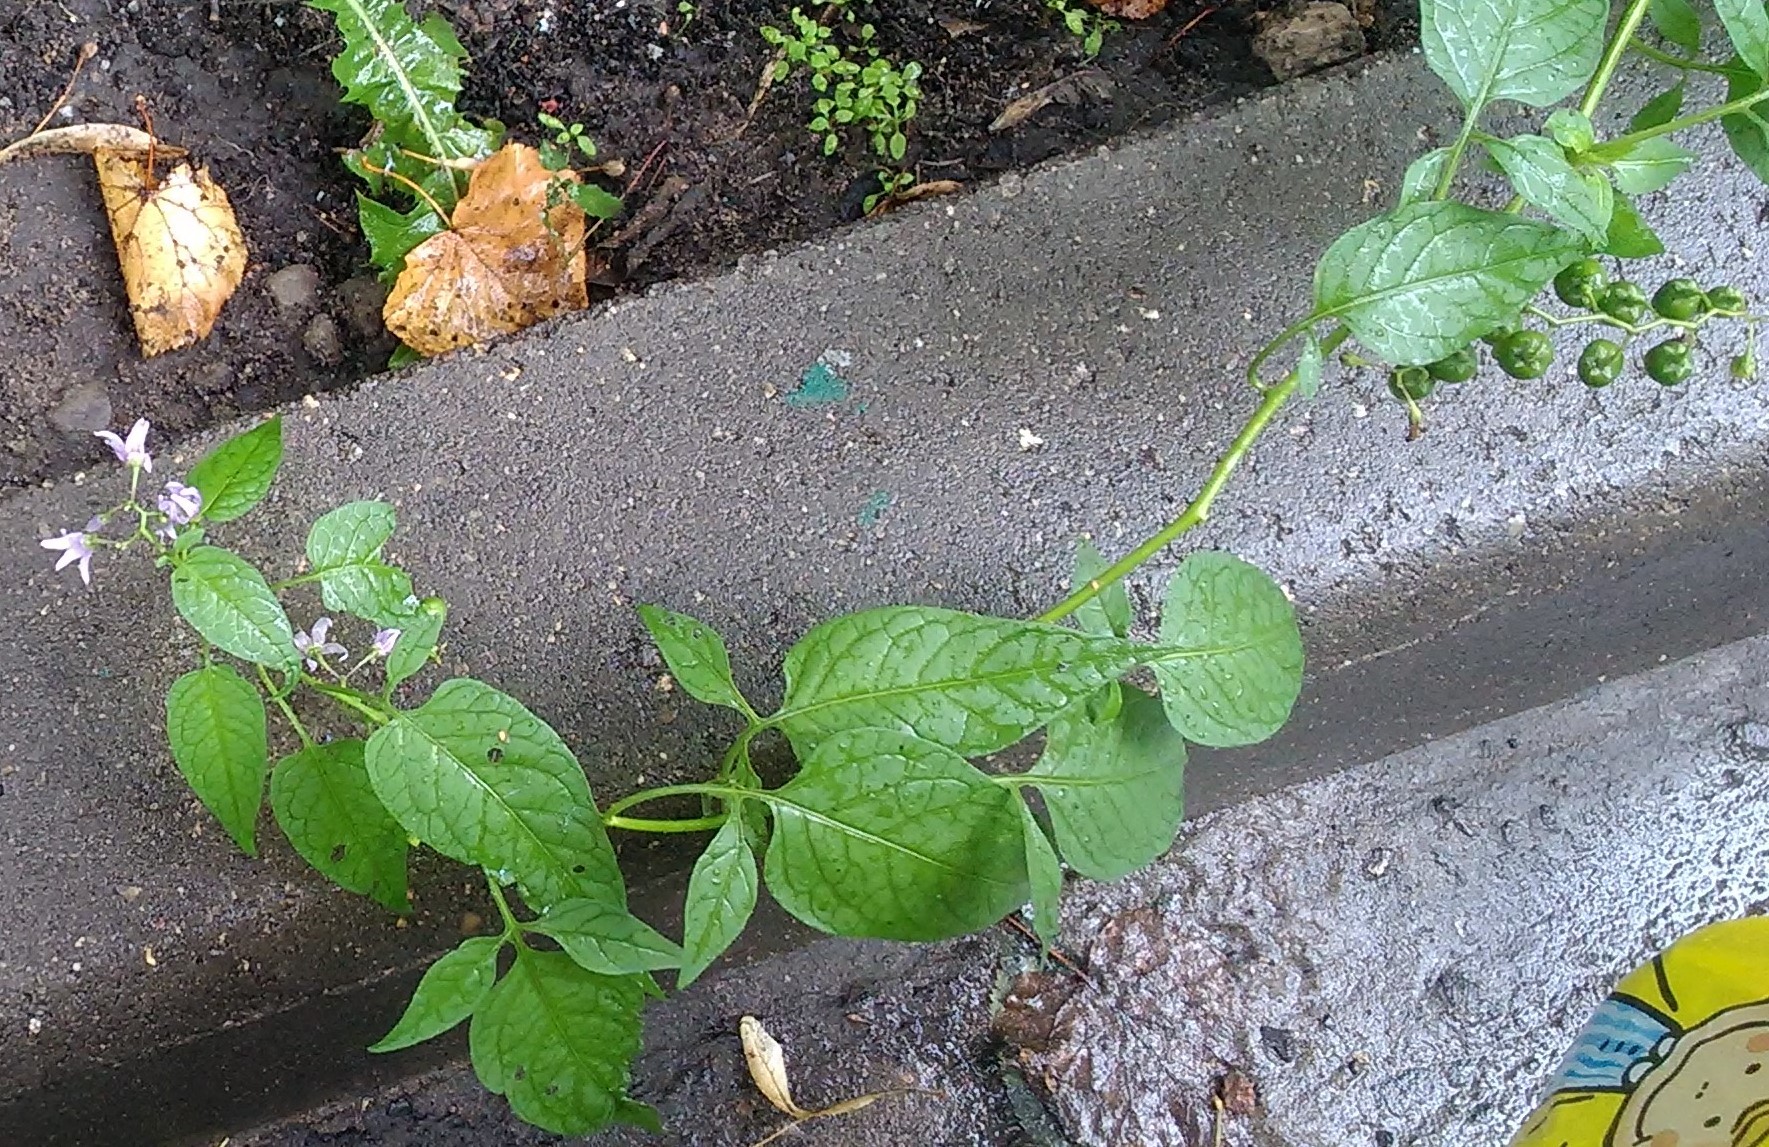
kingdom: Plantae
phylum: Tracheophyta
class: Magnoliopsida
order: Solanales
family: Solanaceae
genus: Solanum
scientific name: Solanum dulcamara
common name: Climbing nightshade
